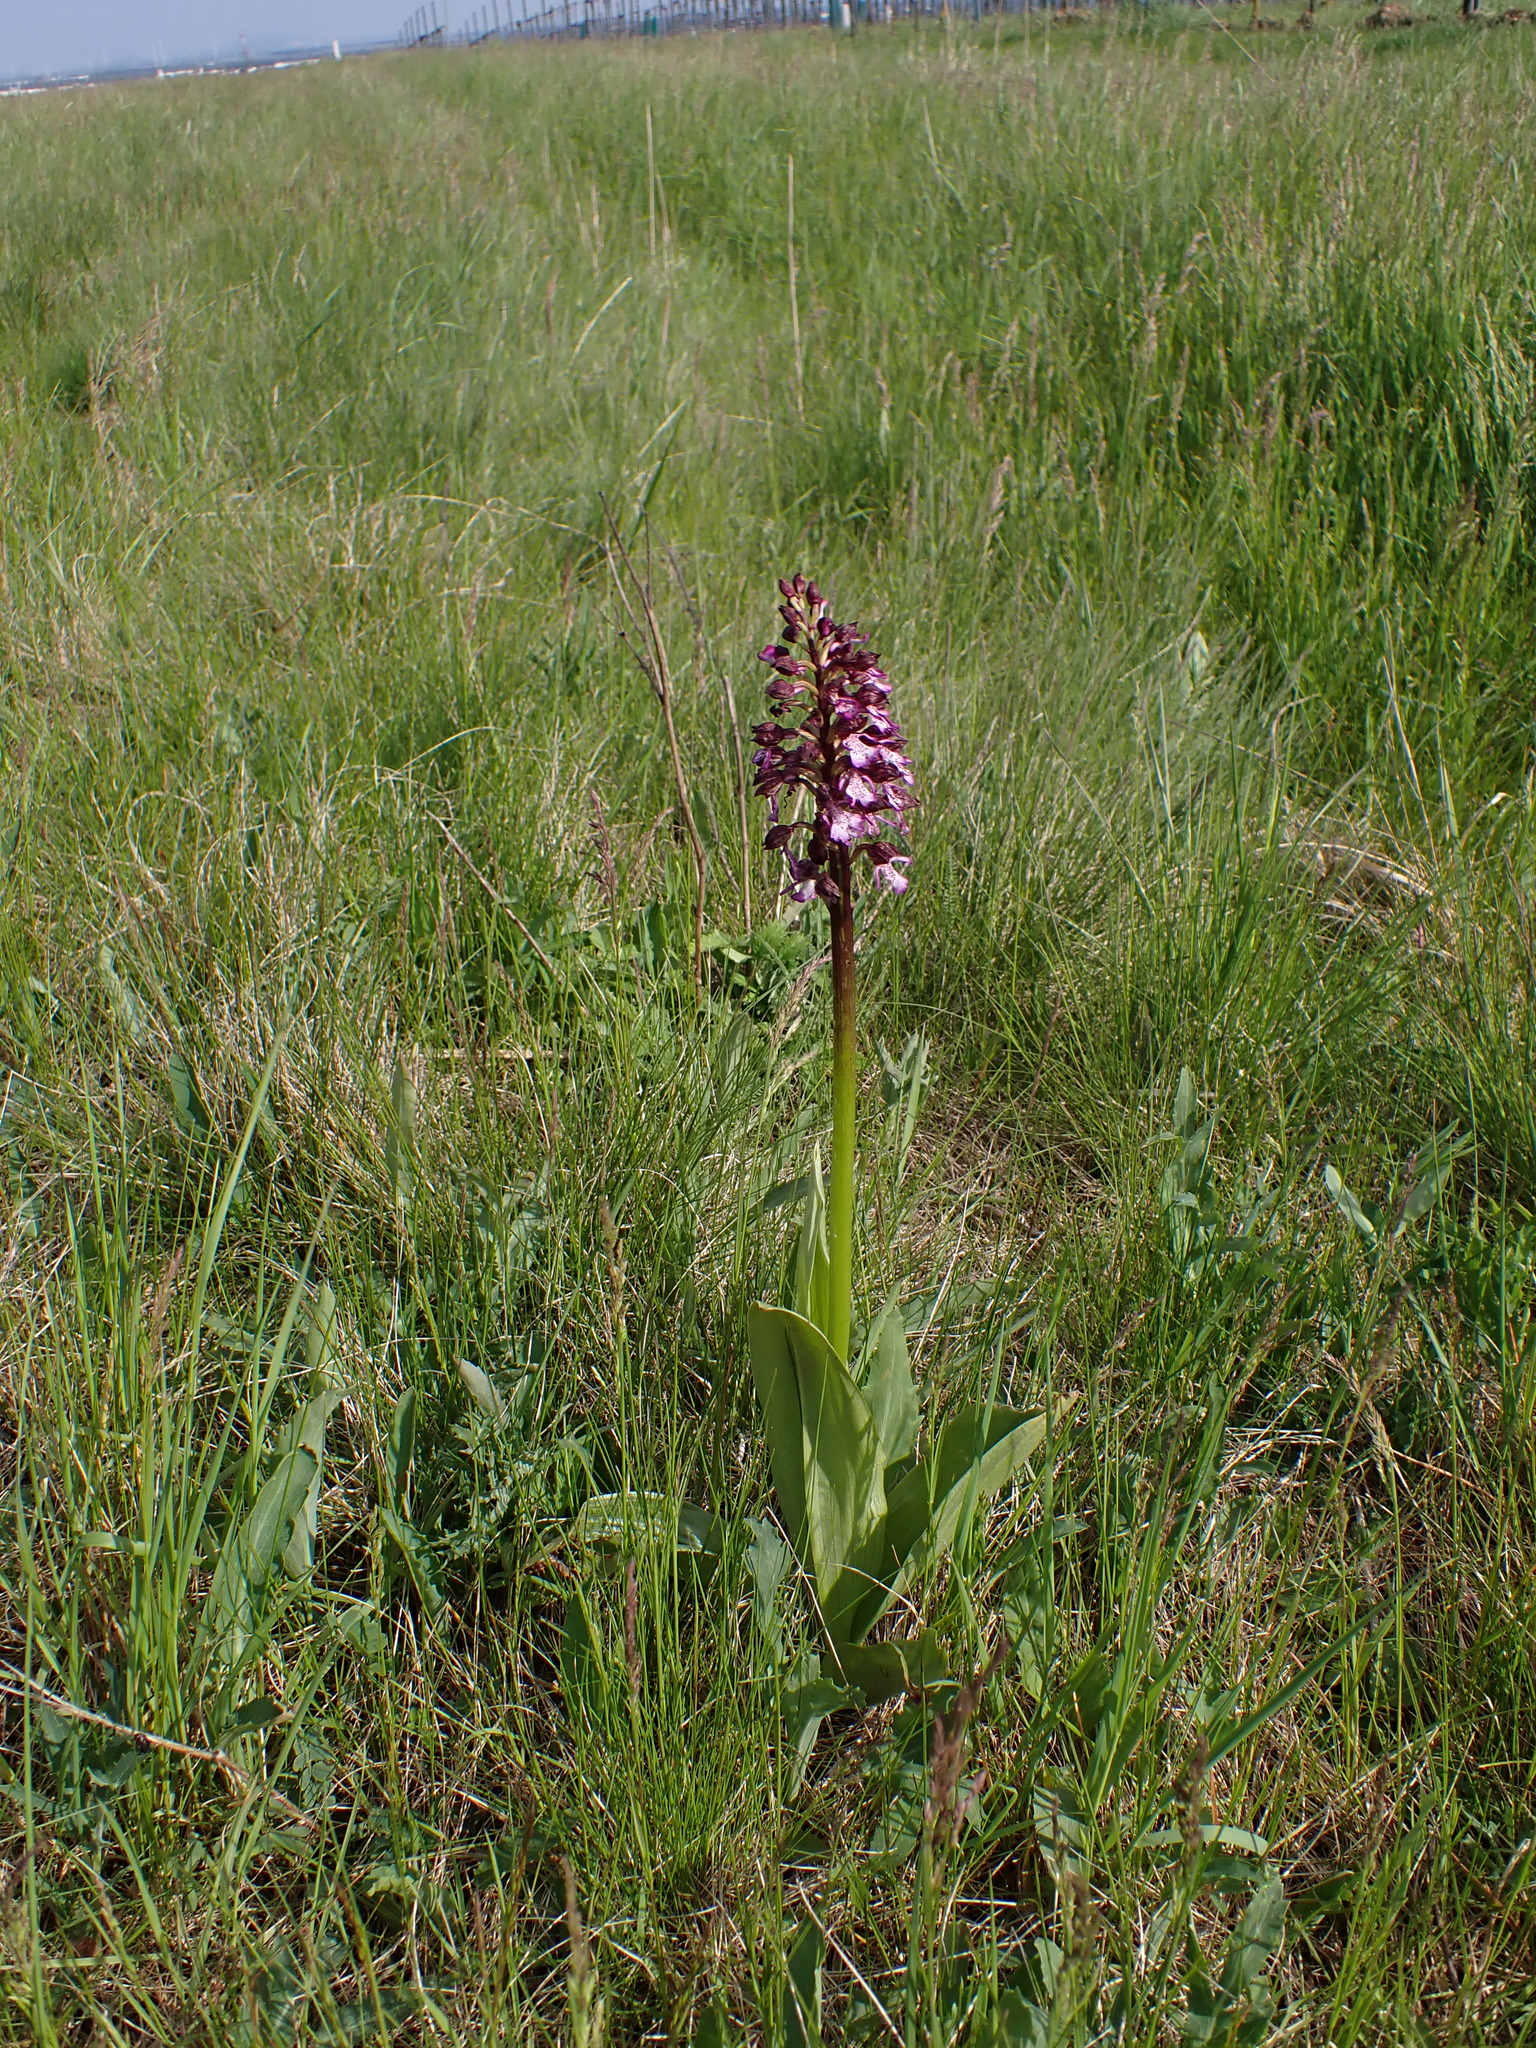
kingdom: Plantae
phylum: Tracheophyta
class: Liliopsida
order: Asparagales
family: Orchidaceae
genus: Orchis
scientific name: Orchis purpurea
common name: Lady orchid
